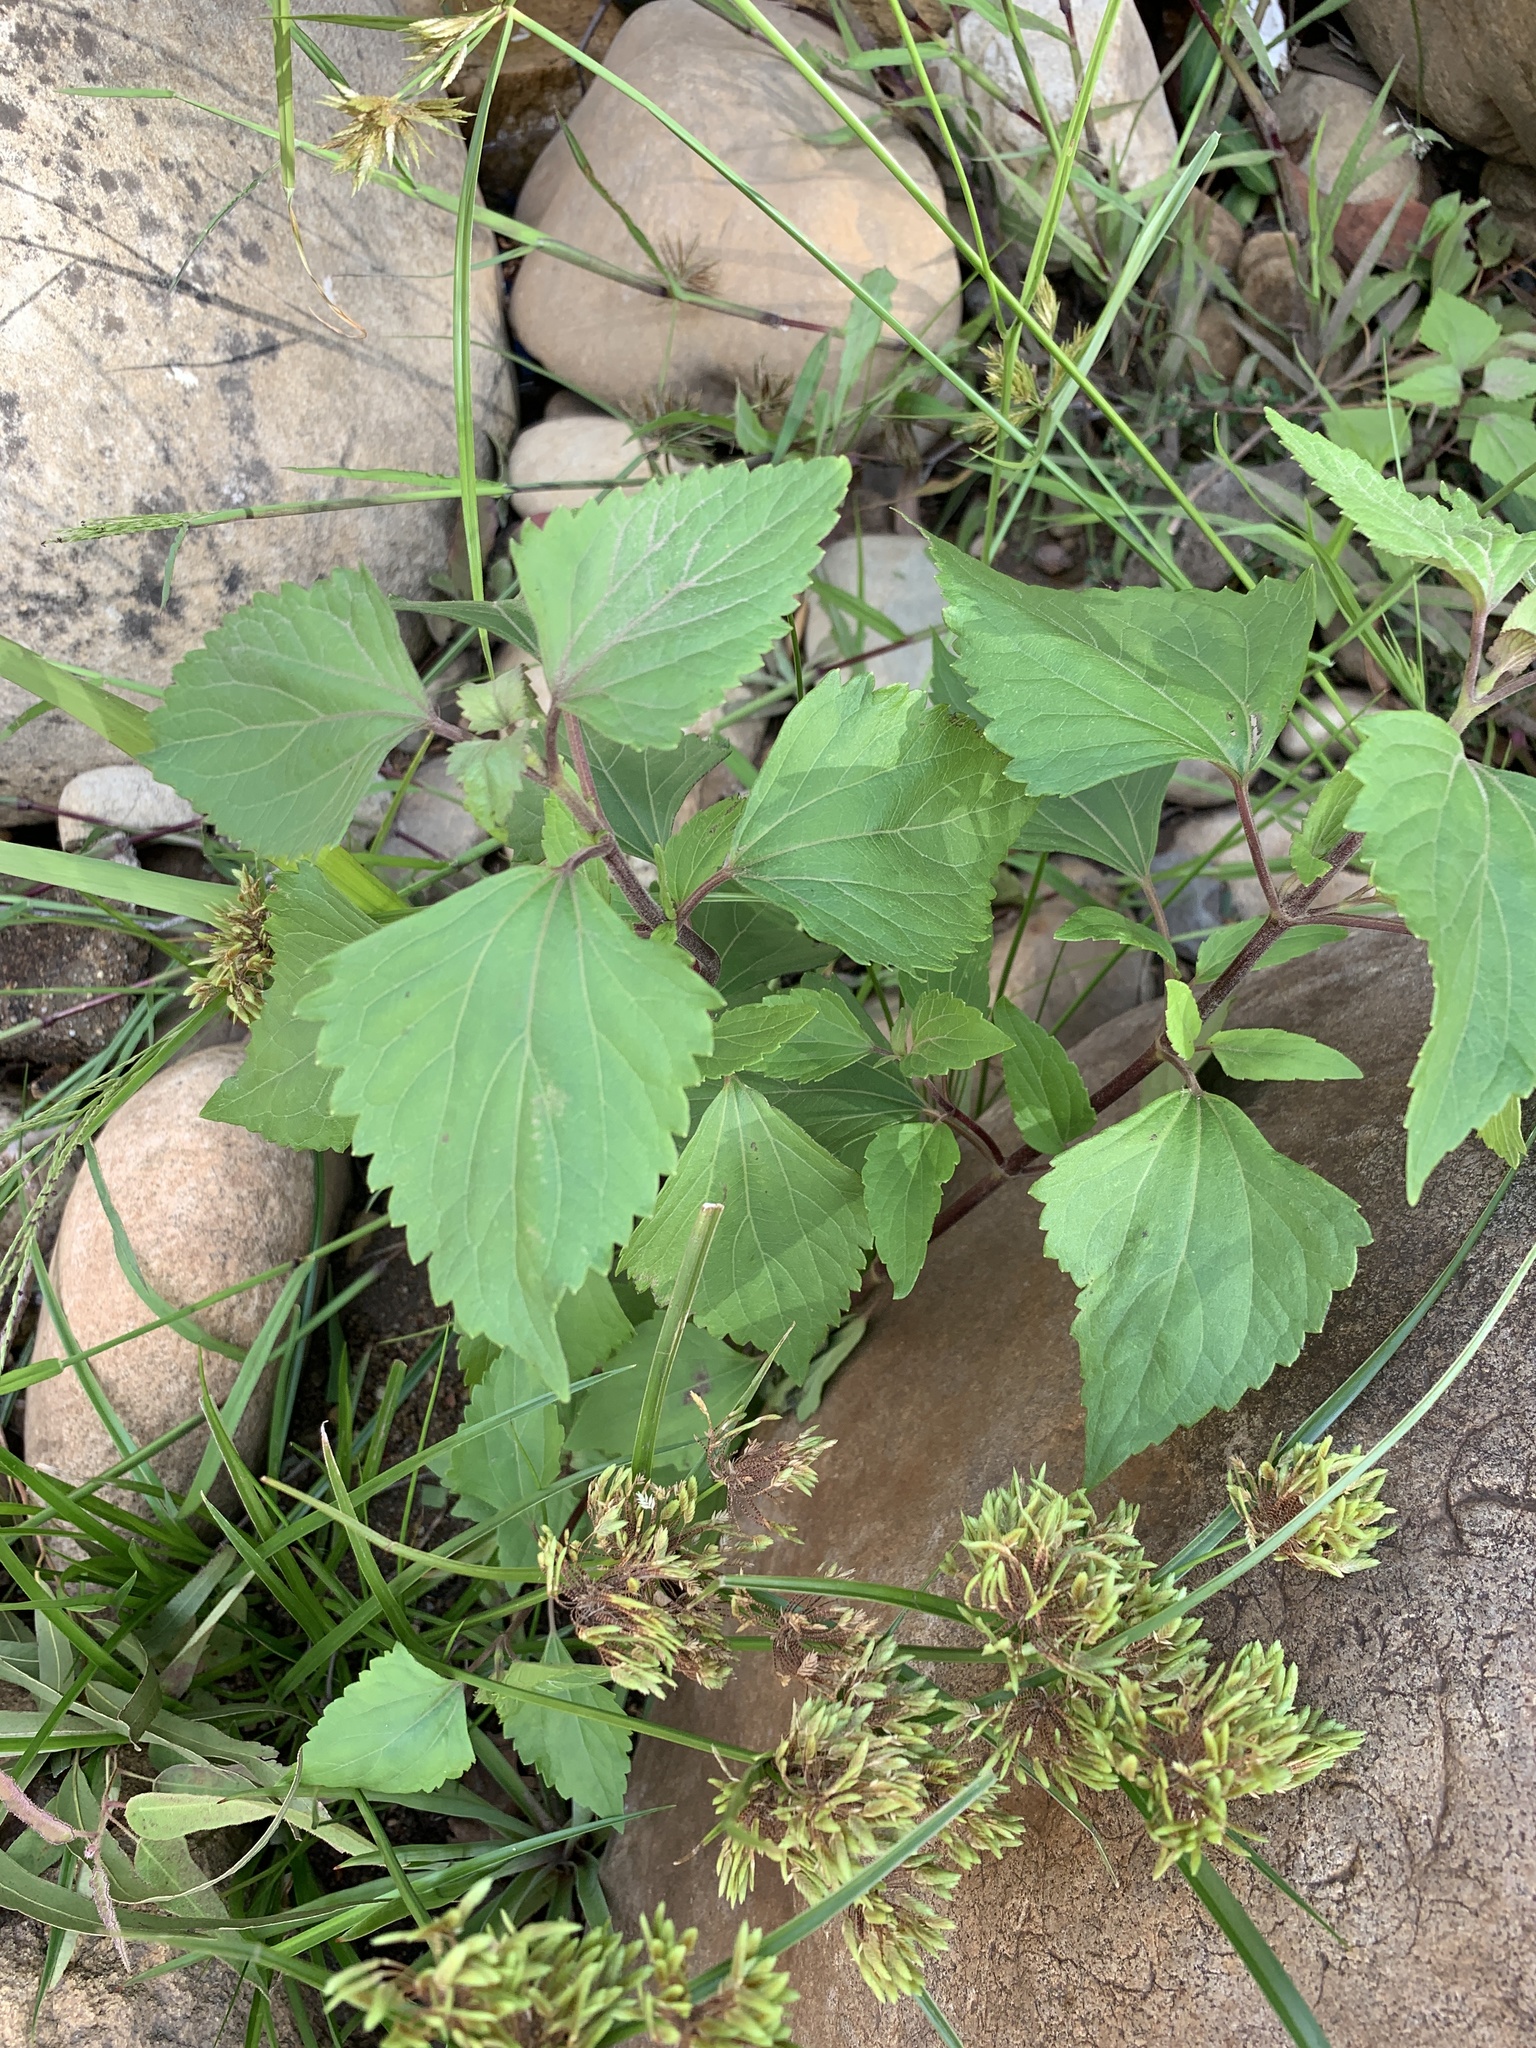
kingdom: Plantae
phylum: Tracheophyta
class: Magnoliopsida
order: Asterales
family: Asteraceae
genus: Ageratina
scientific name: Ageratina adenophora
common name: Sticky snakeroot
